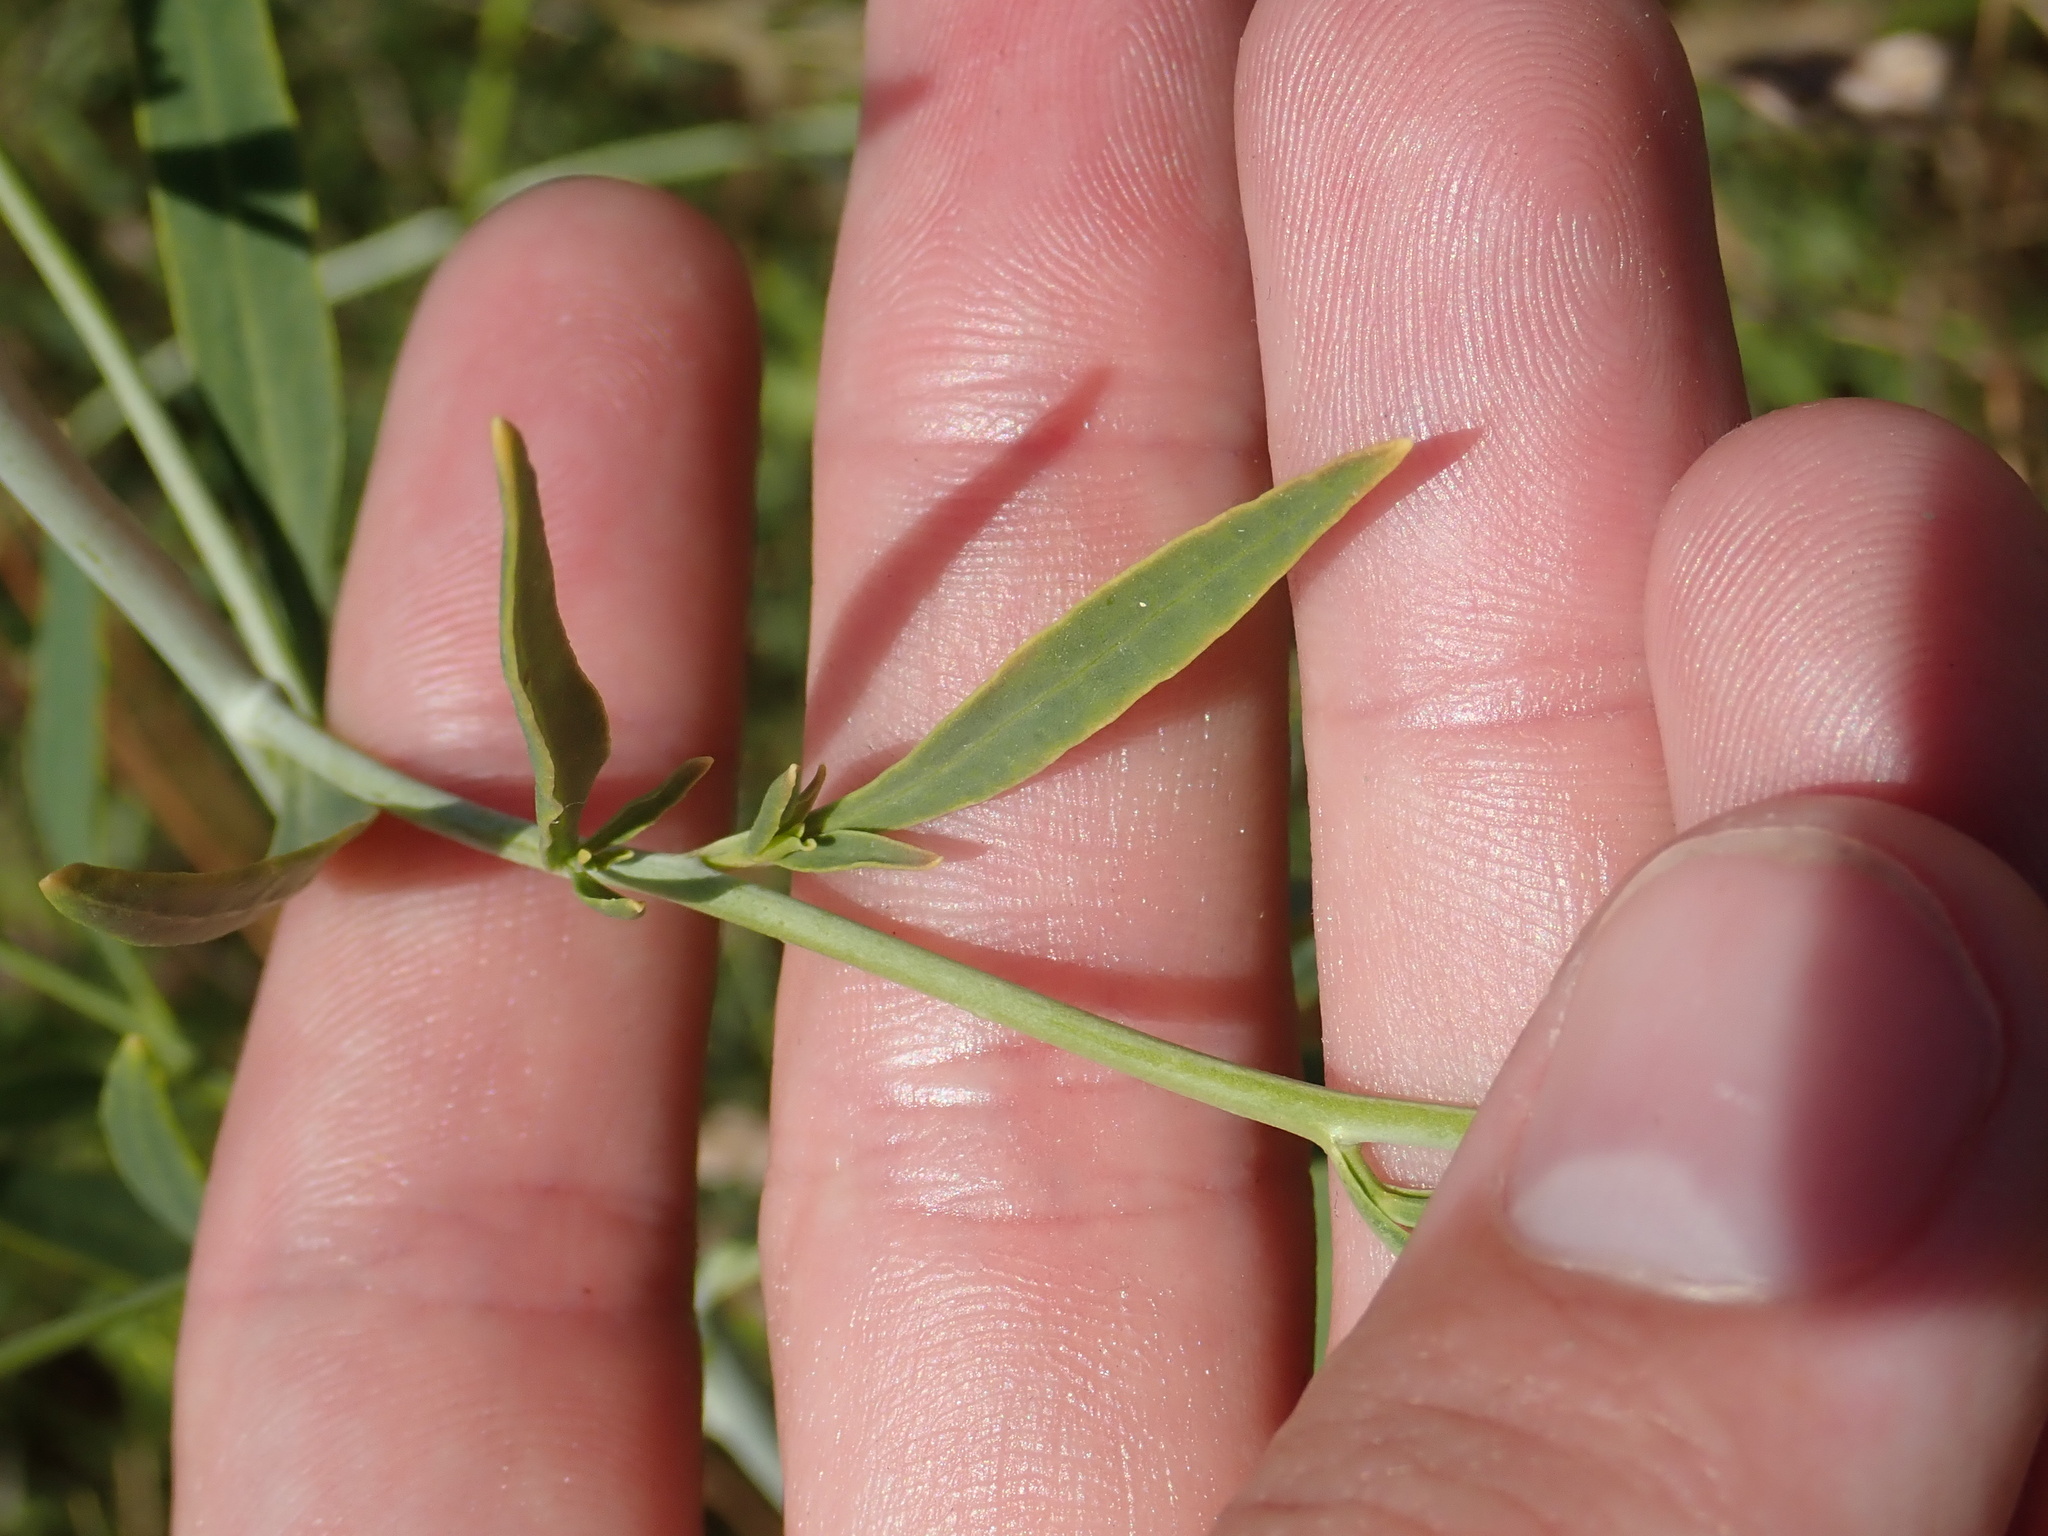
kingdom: Plantae
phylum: Tracheophyta
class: Magnoliopsida
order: Brassicales
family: Brassicaceae
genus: Lepidium
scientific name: Lepidium latifolium
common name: Dittander
